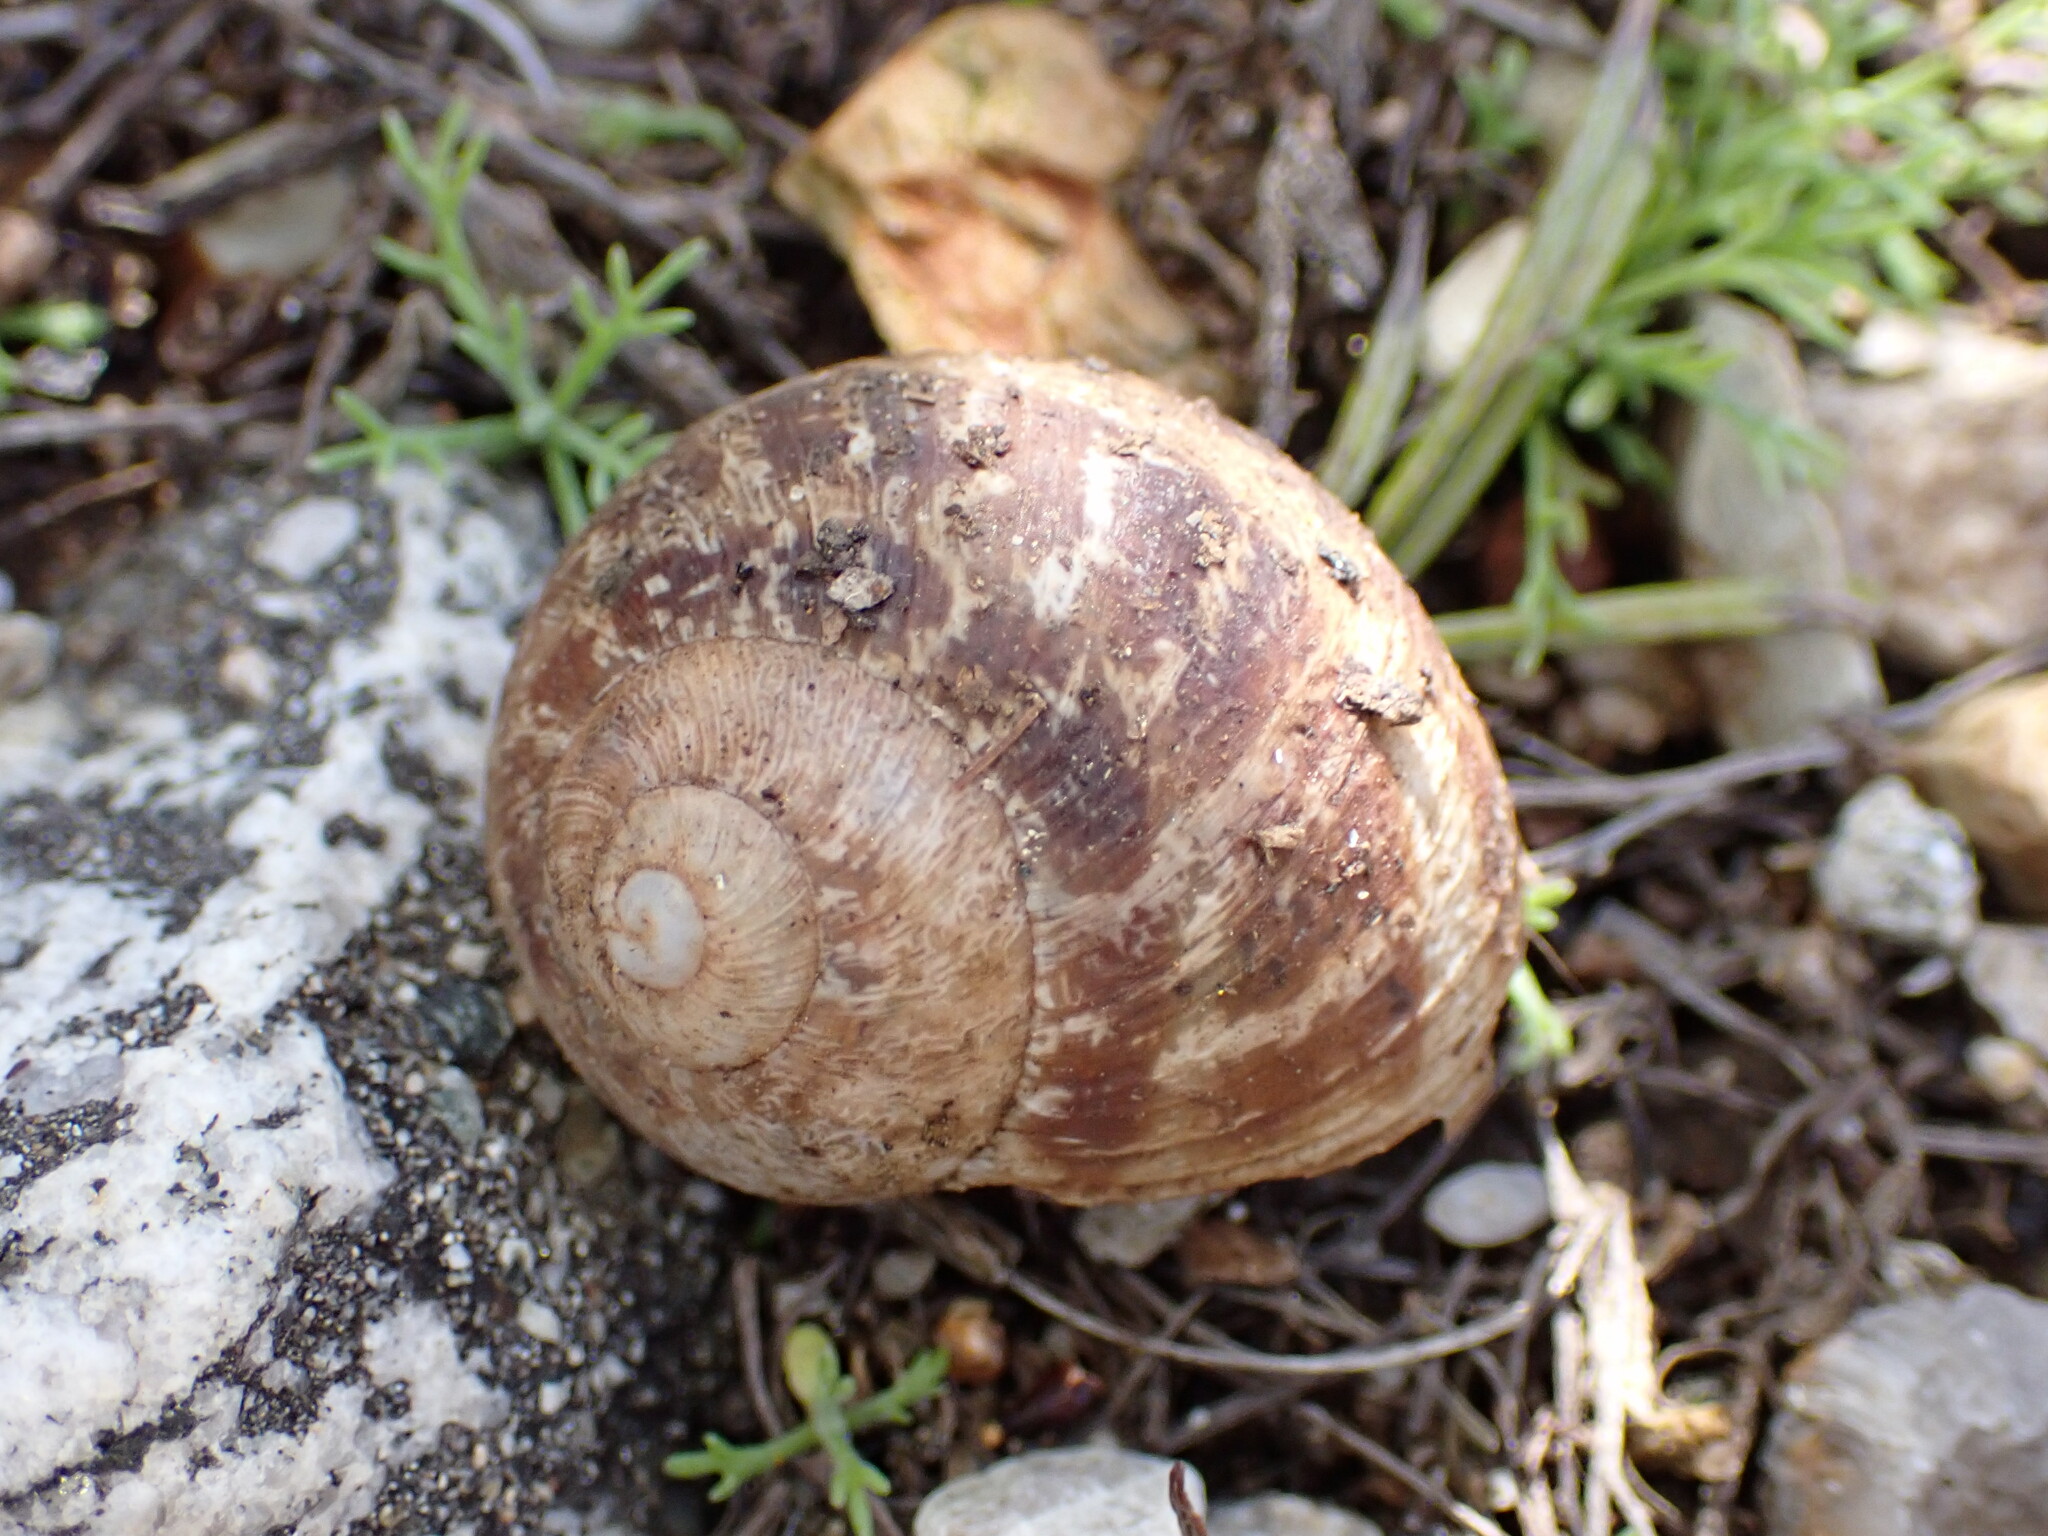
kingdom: Animalia
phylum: Mollusca
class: Gastropoda
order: Stylommatophora
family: Helicidae
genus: Cornu
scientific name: Cornu aspersum
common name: Brown garden snail
